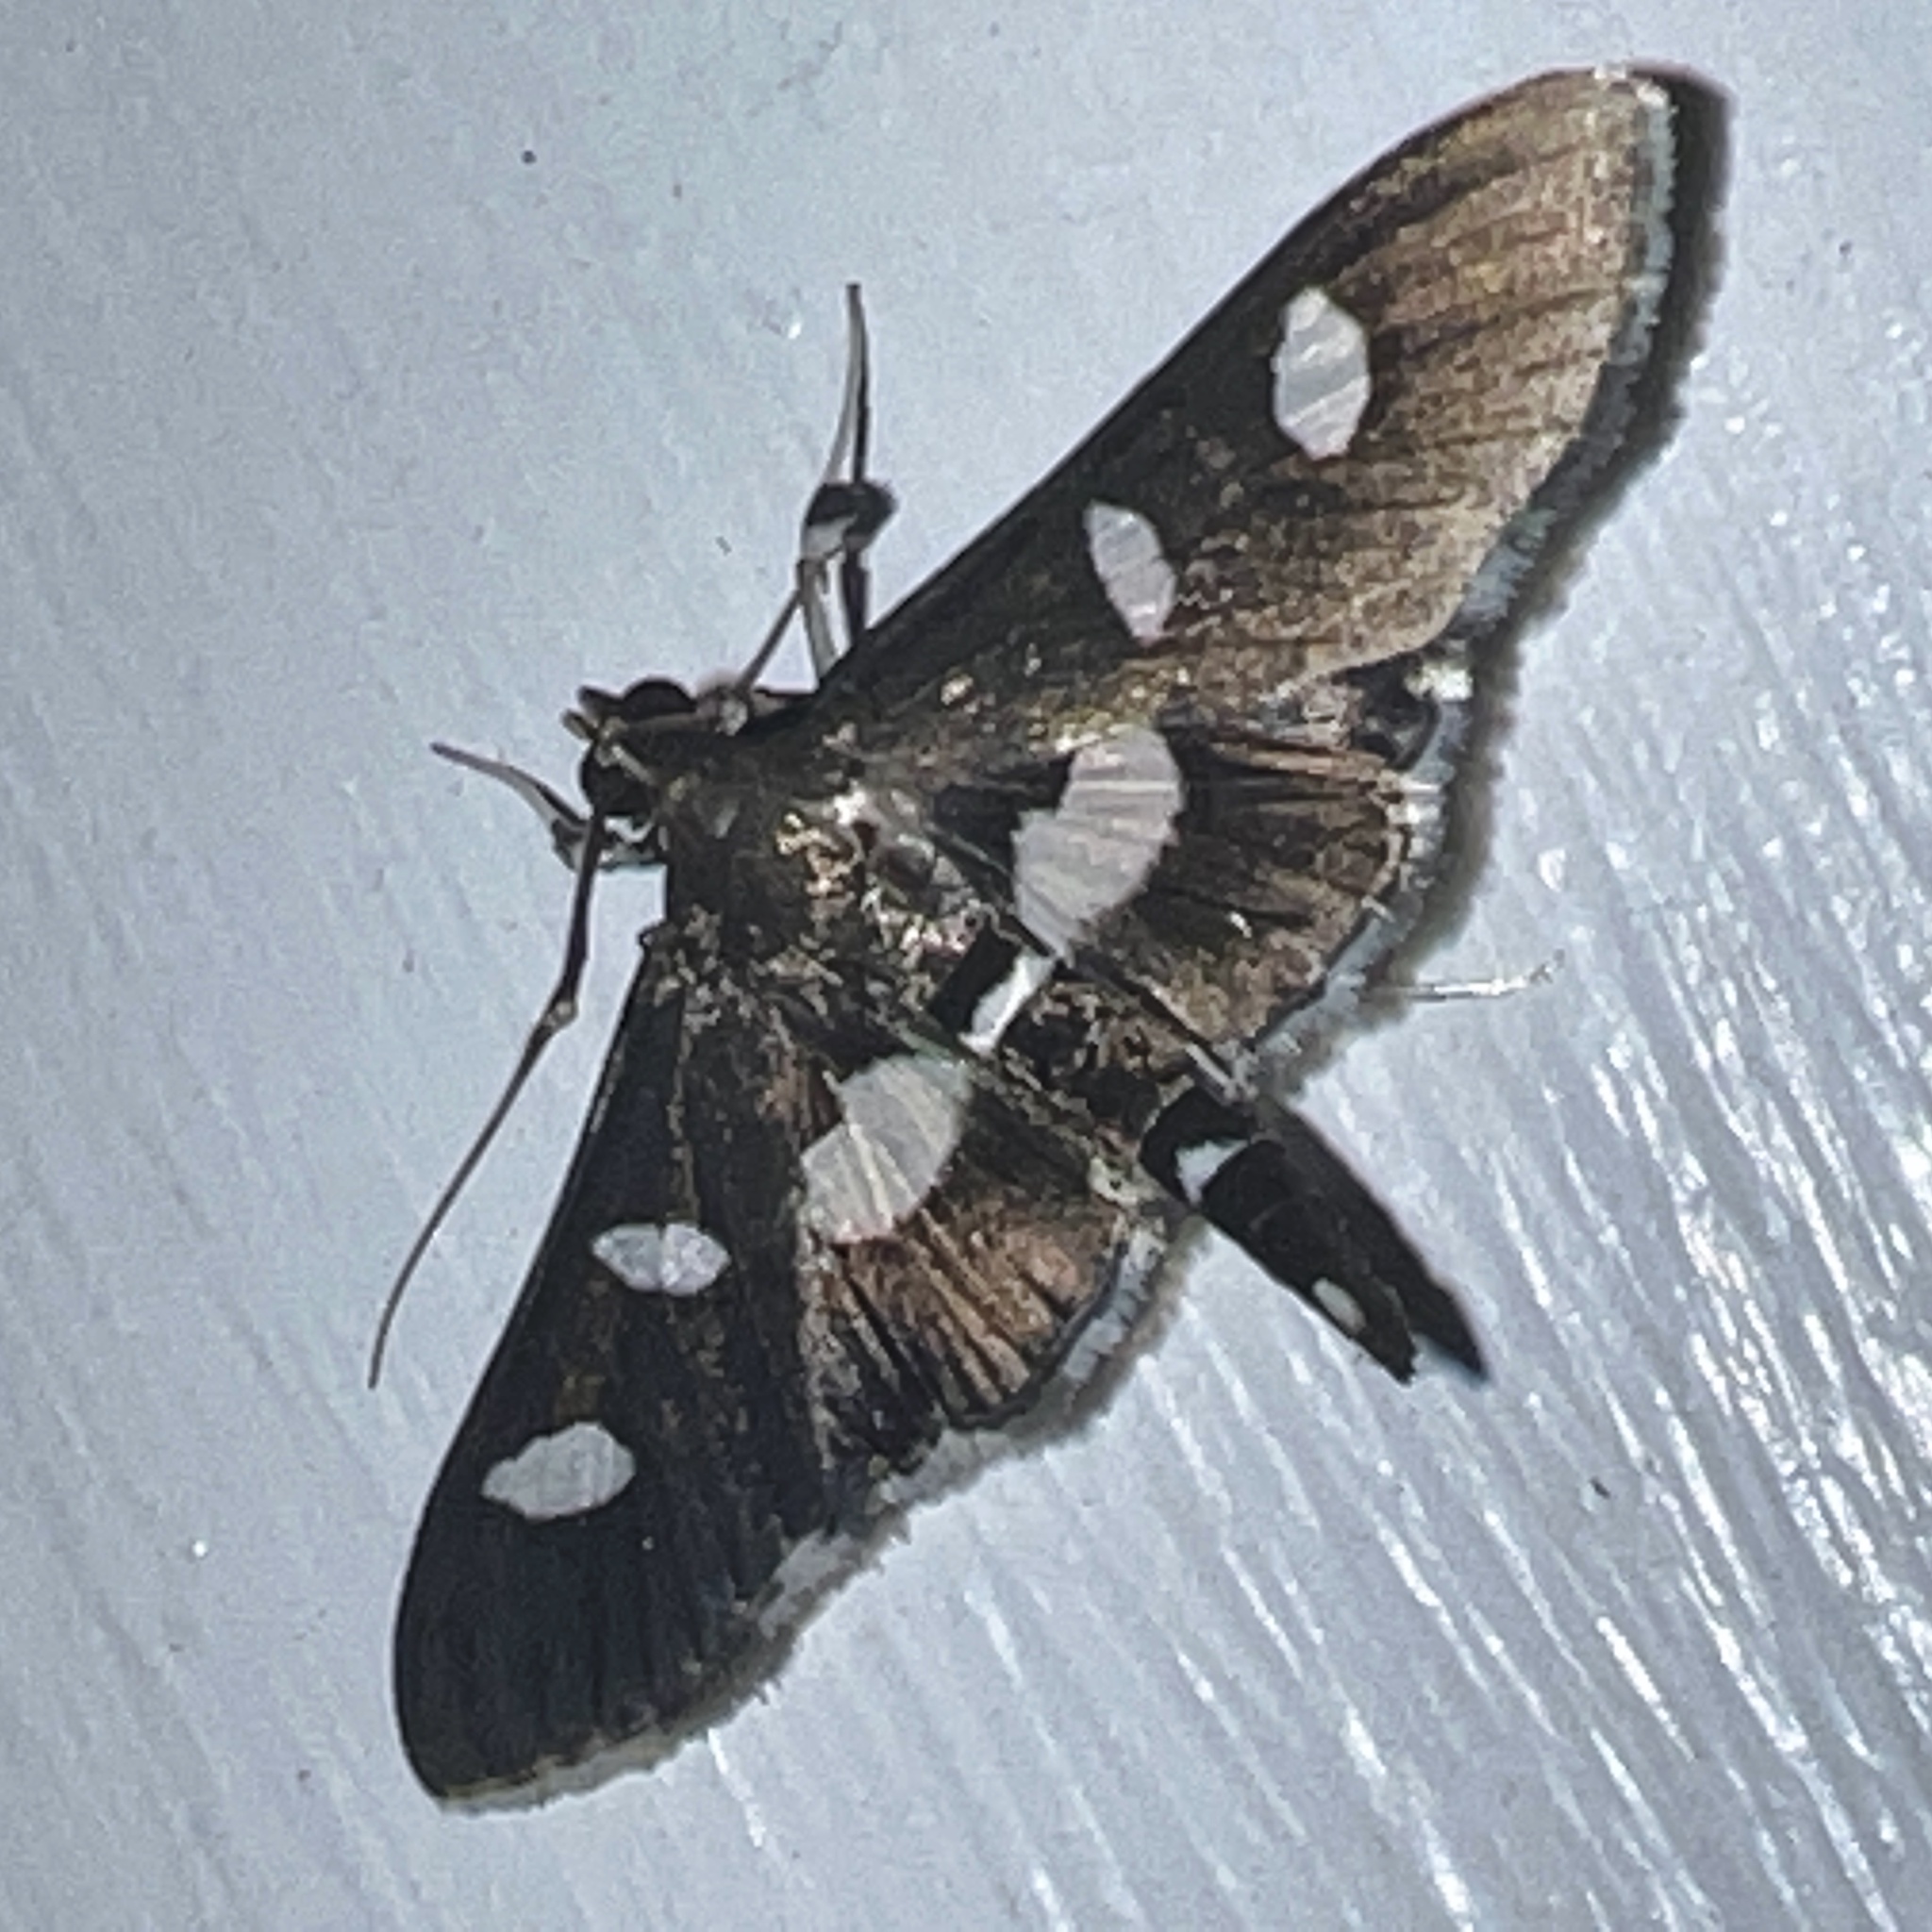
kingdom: Animalia
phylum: Arthropoda
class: Insecta
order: Lepidoptera
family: Crambidae
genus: Desmia
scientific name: Desmia funeralis
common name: Grape leaf folder moth
